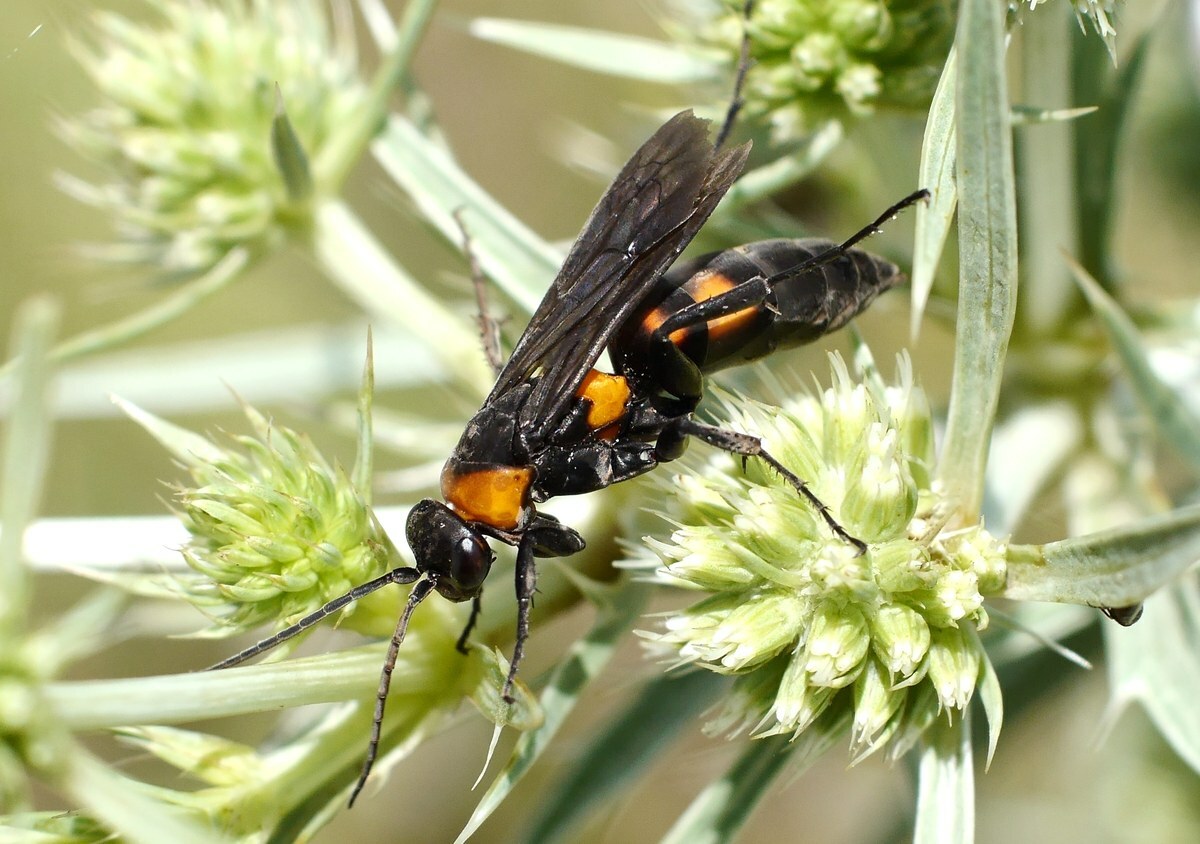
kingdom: Animalia
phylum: Arthropoda
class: Insecta
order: Hymenoptera
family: Pompilidae
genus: Eoferreola
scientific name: Eoferreola erythraea
